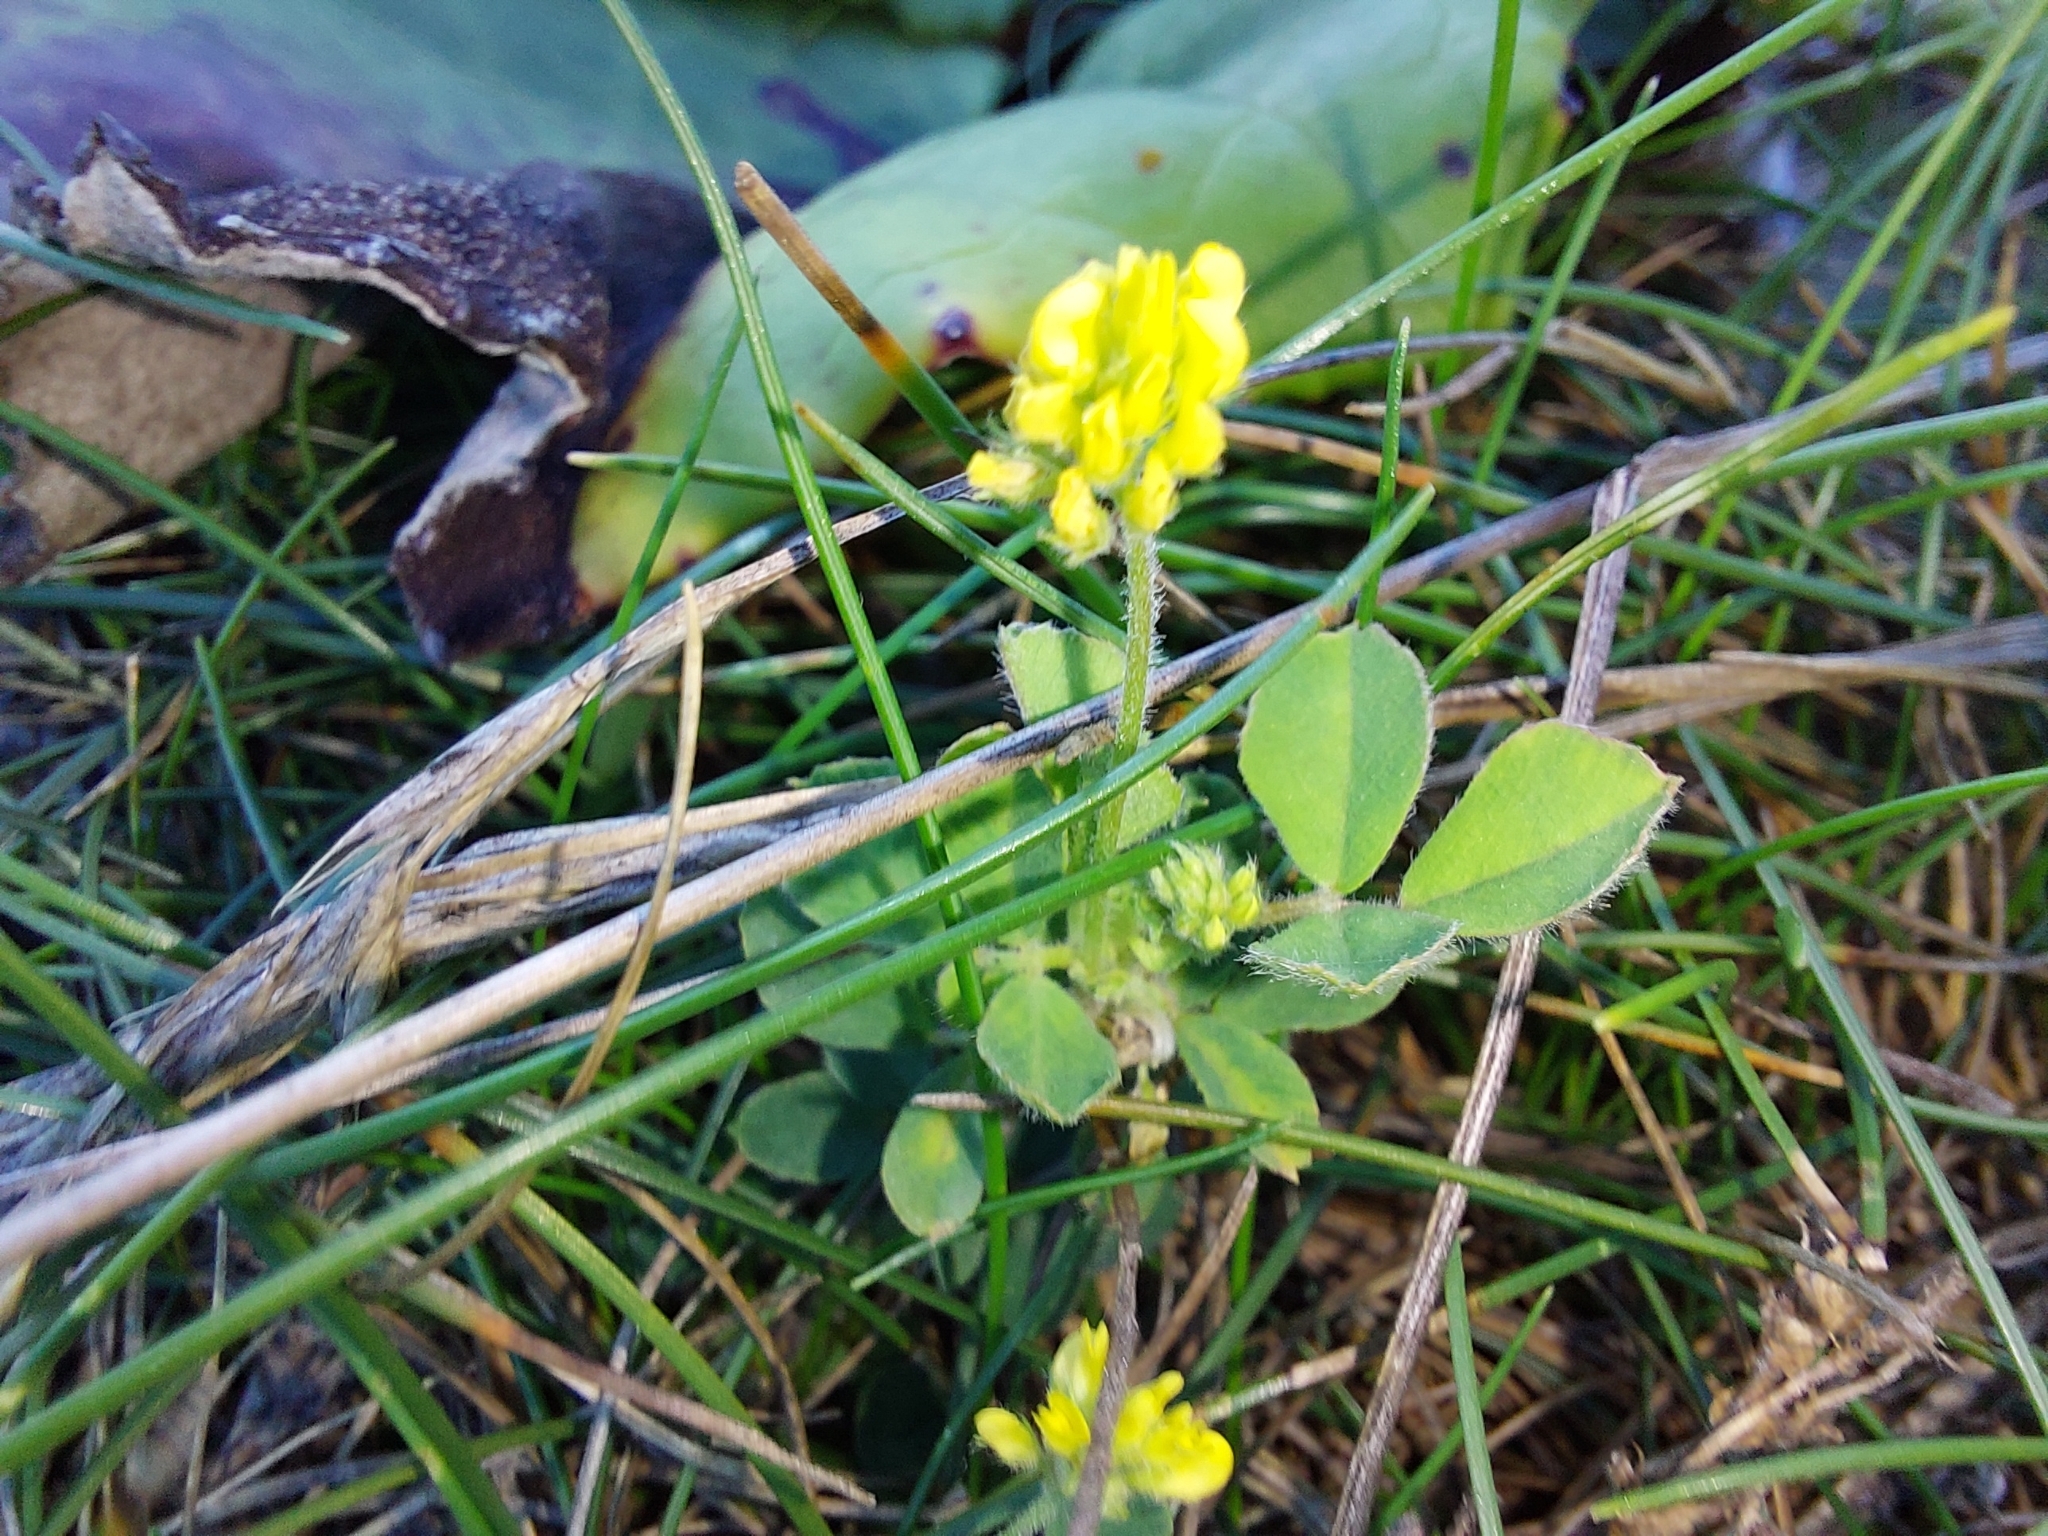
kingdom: Plantae
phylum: Tracheophyta
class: Magnoliopsida
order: Fabales
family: Fabaceae
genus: Medicago
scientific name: Medicago lupulina
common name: Black medick
